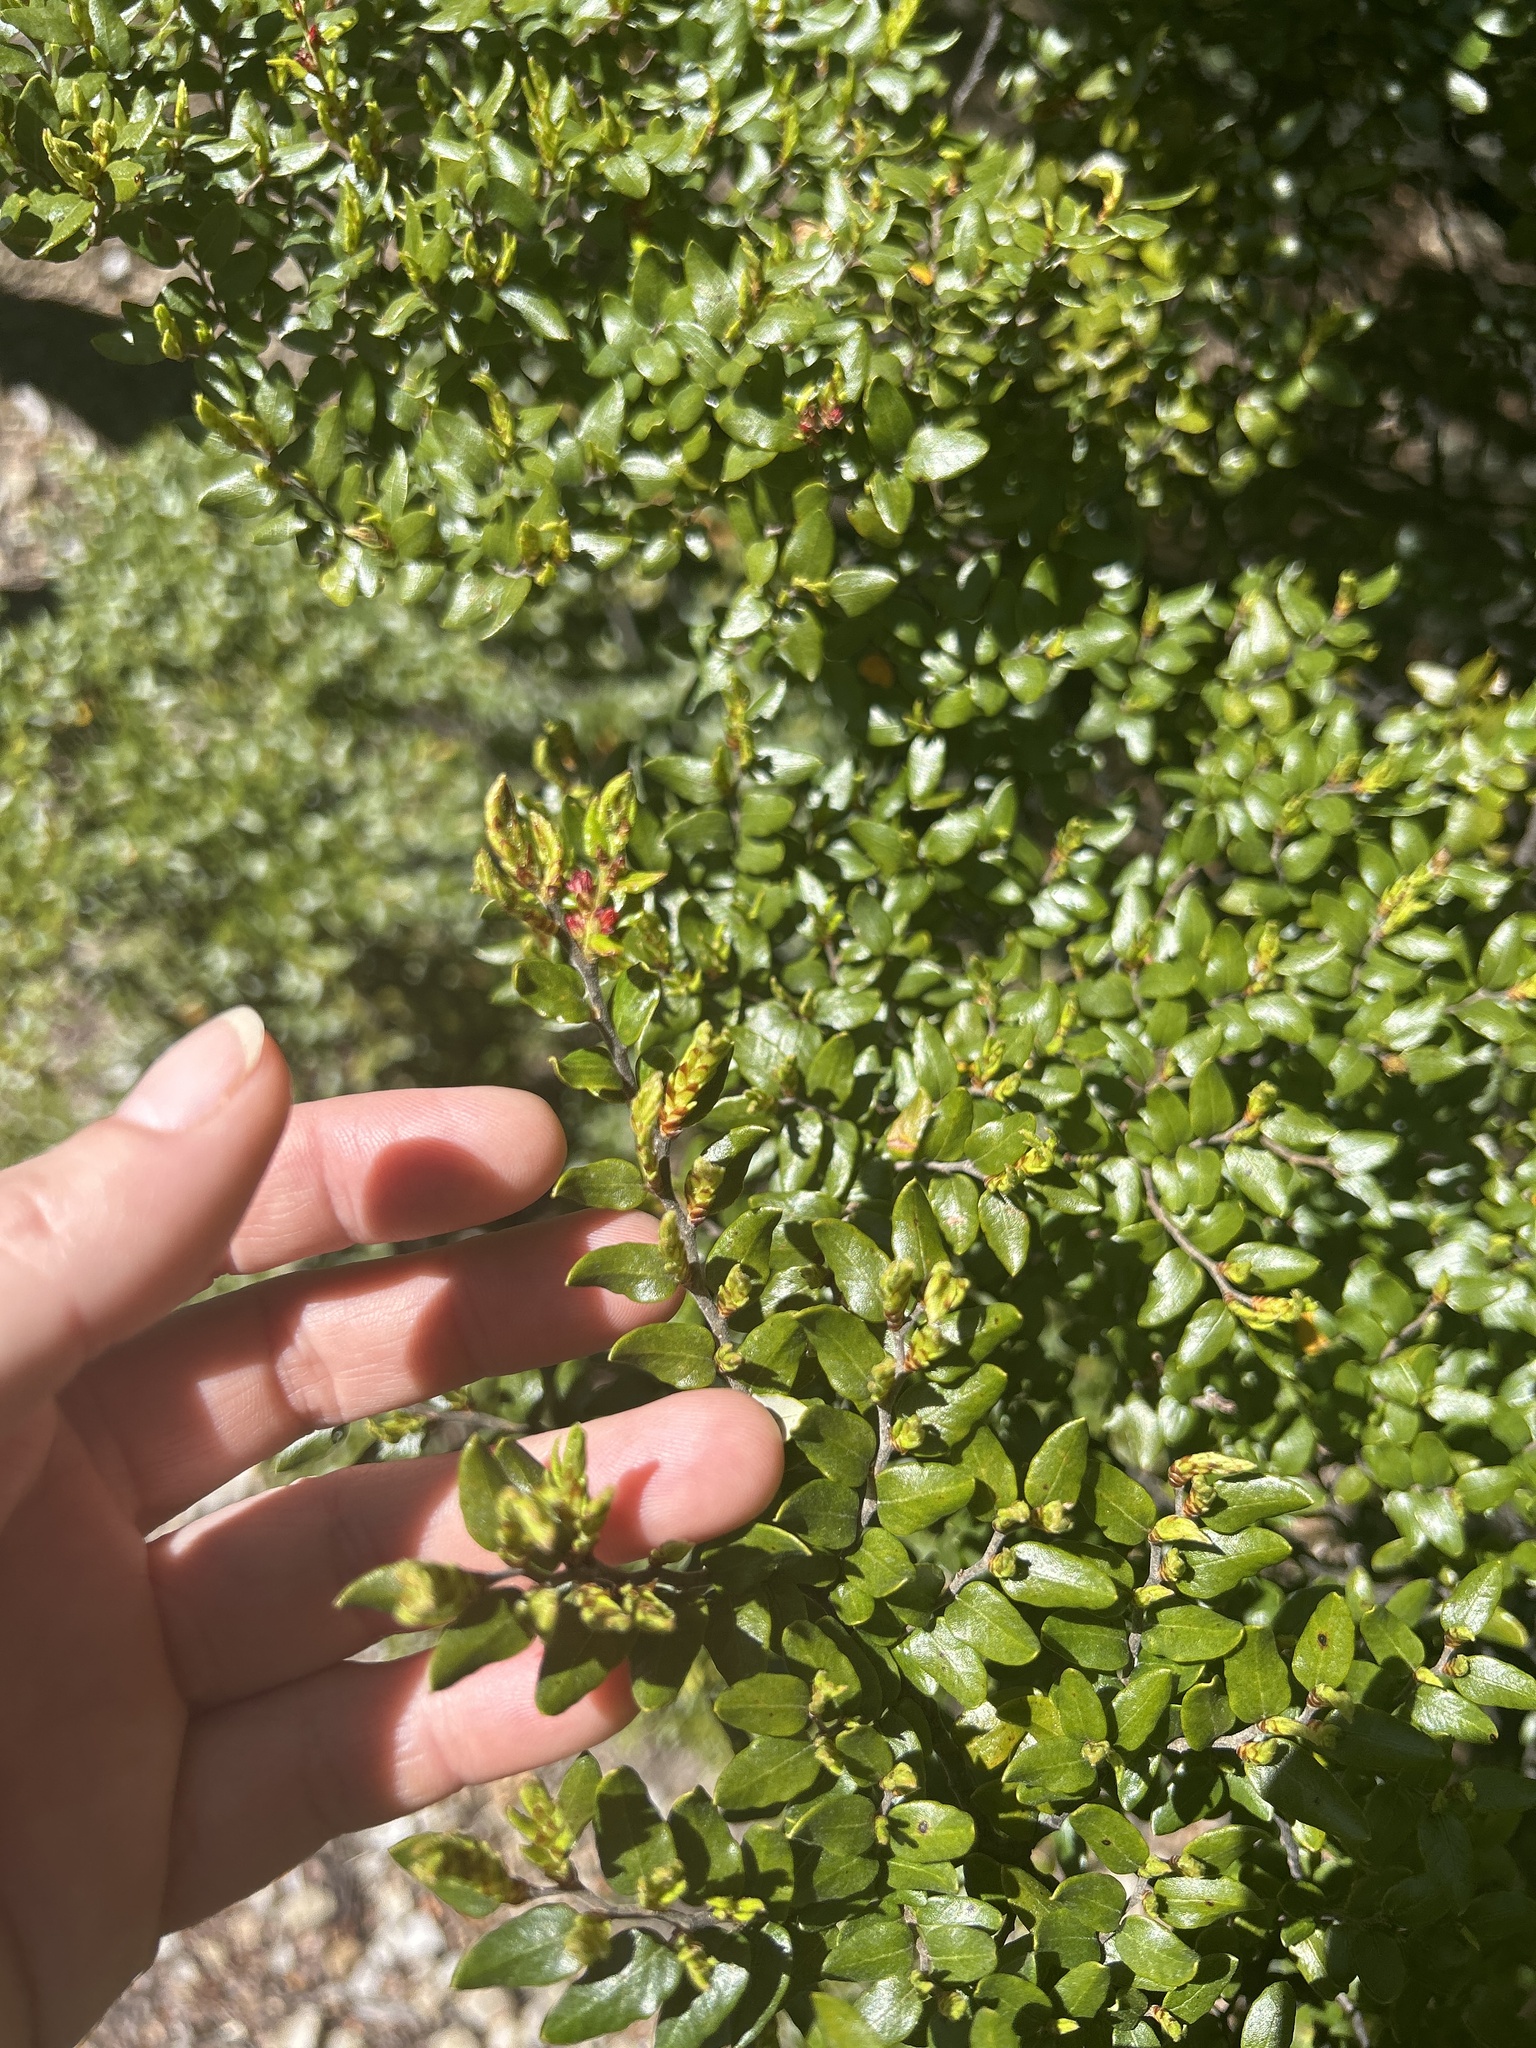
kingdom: Plantae
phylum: Tracheophyta
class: Magnoliopsida
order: Fagales
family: Nothofagaceae
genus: Nothofagus
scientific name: Nothofagus cliffortioides
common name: Mountain beech
